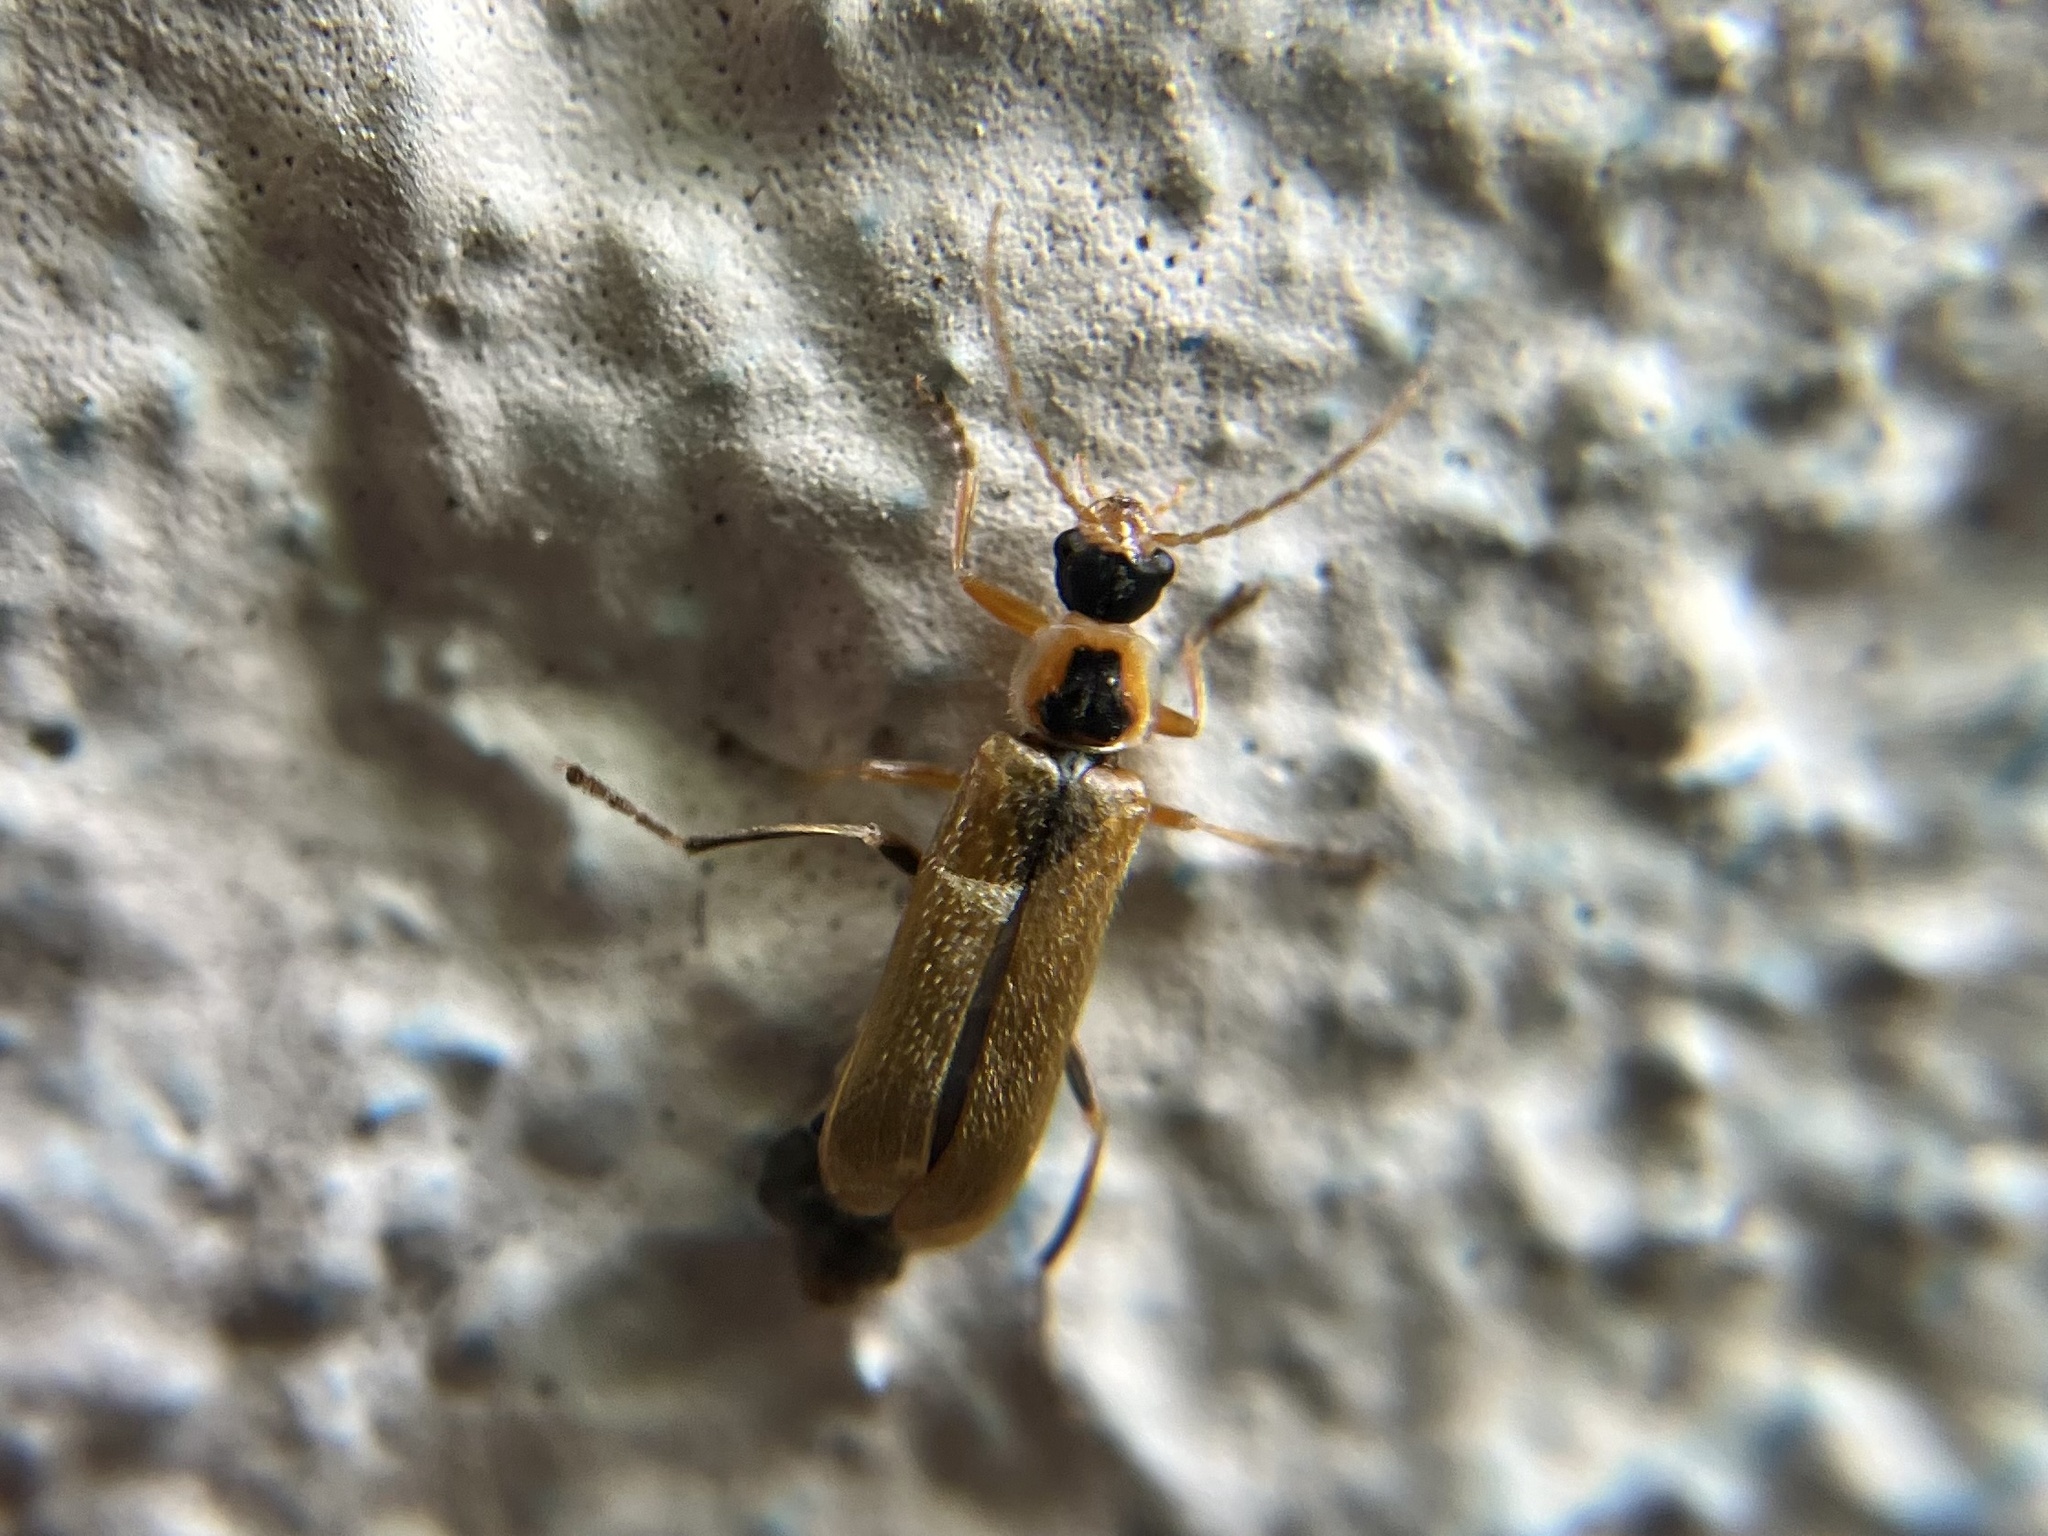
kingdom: Animalia
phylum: Arthropoda
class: Insecta
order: Coleoptera
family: Cantharidae
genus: Cantharis
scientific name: Cantharis decipiens
